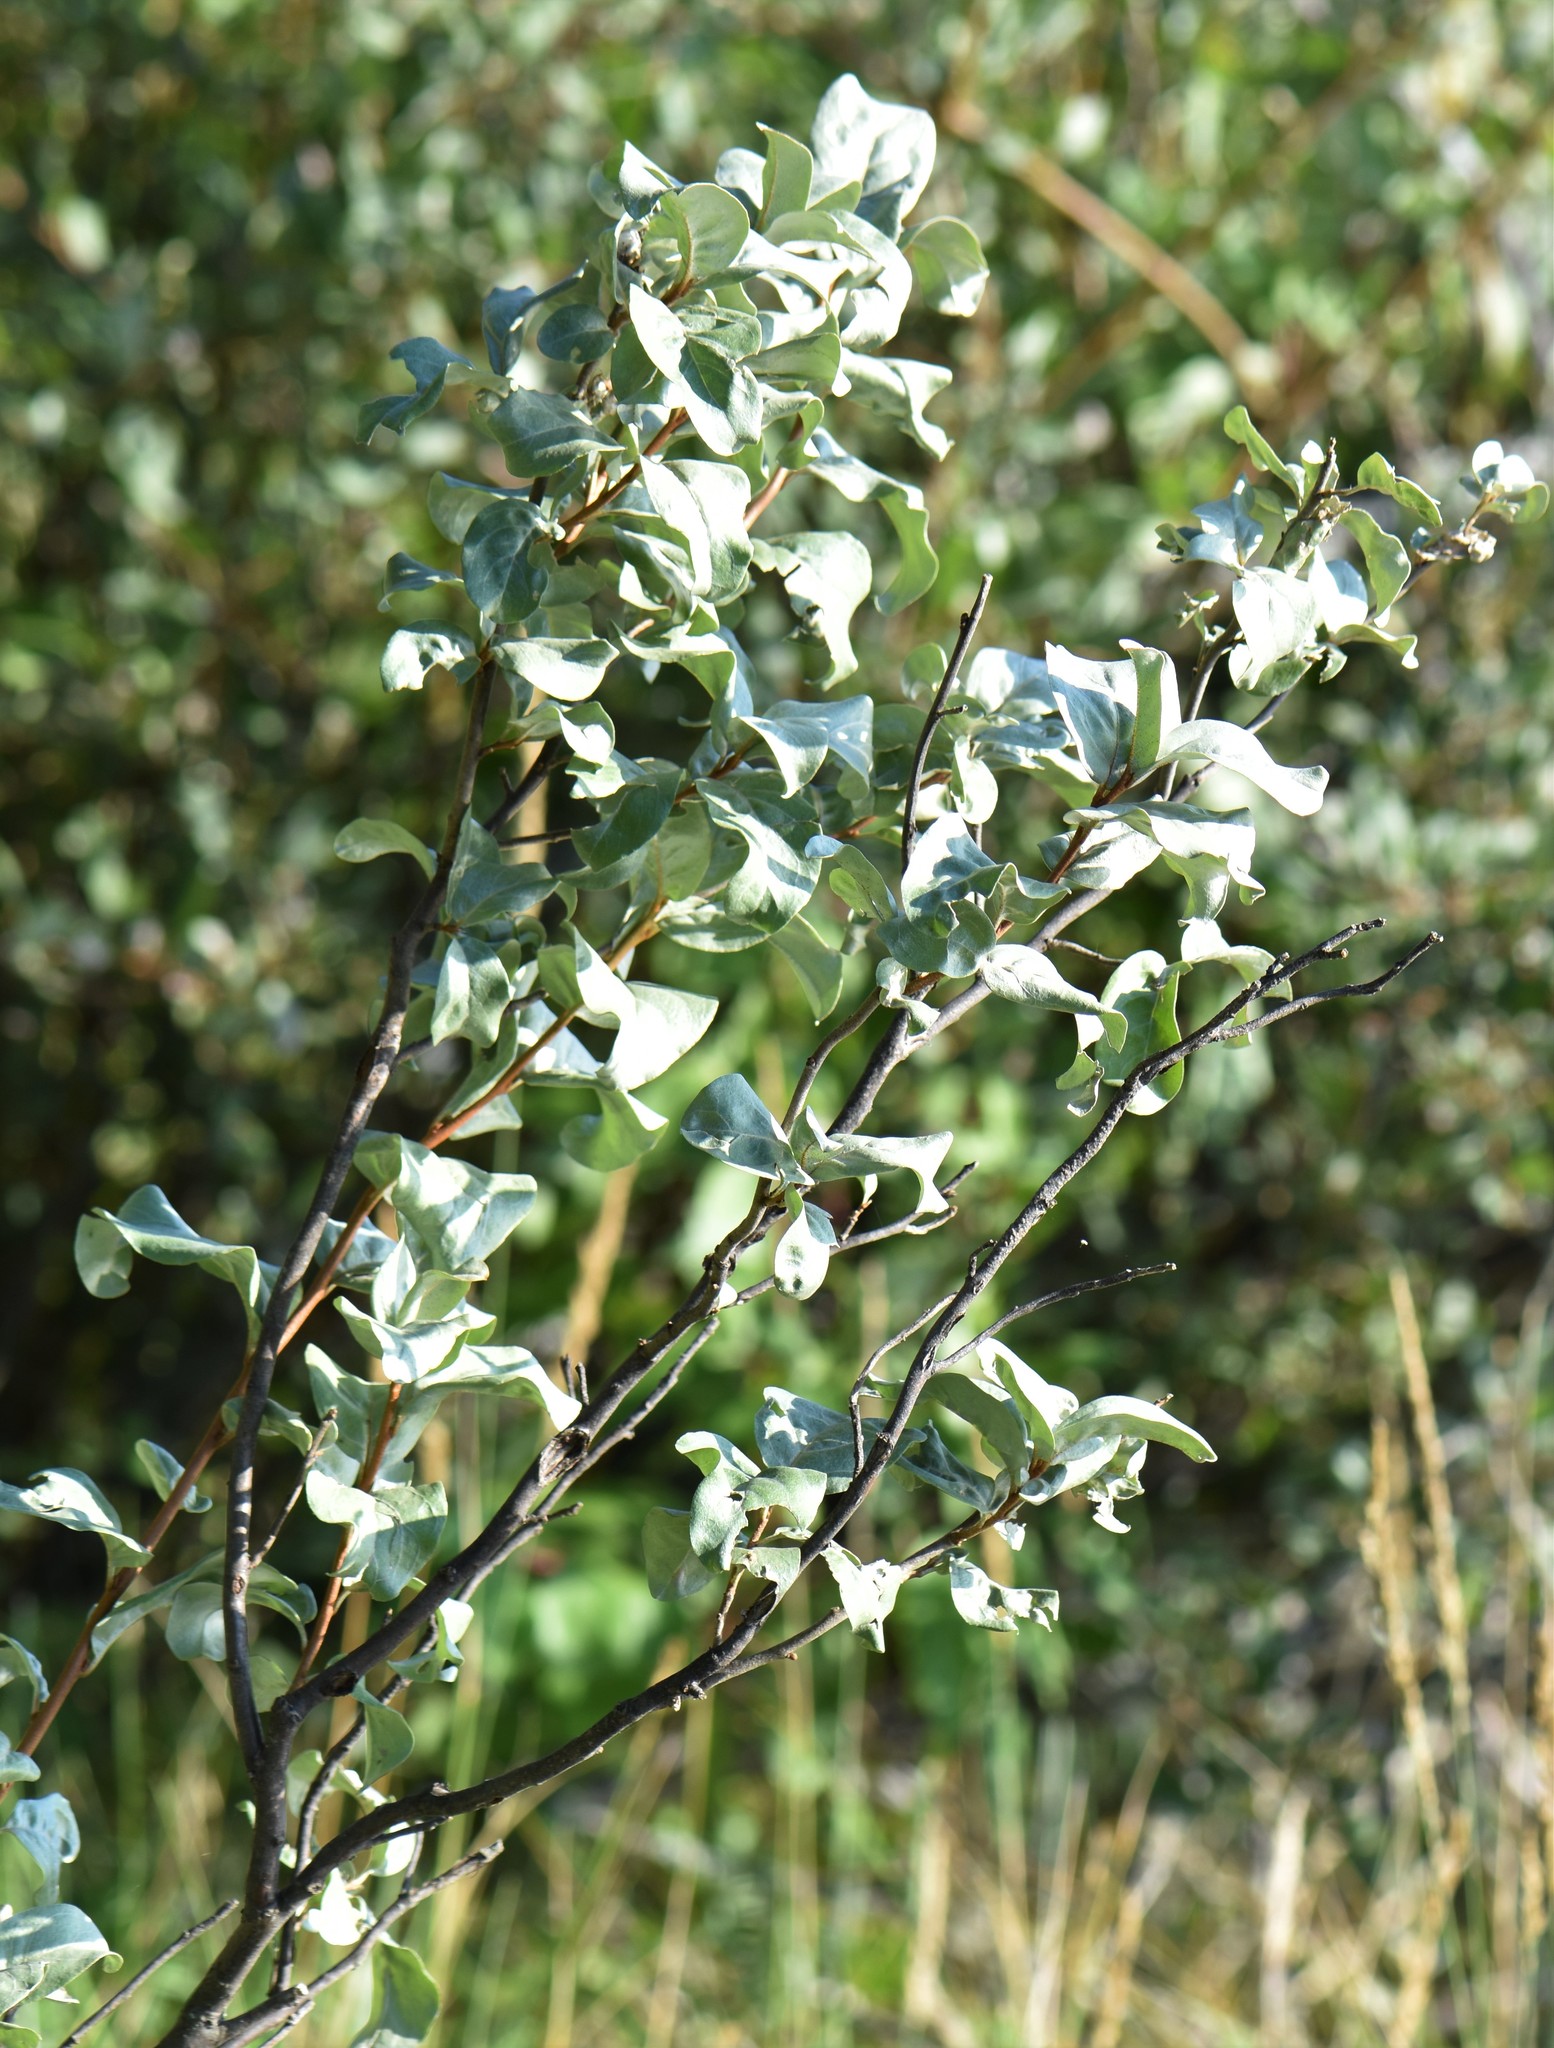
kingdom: Plantae
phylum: Tracheophyta
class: Magnoliopsida
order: Rosales
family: Elaeagnaceae
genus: Elaeagnus
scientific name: Elaeagnus commutata
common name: Silverberry
